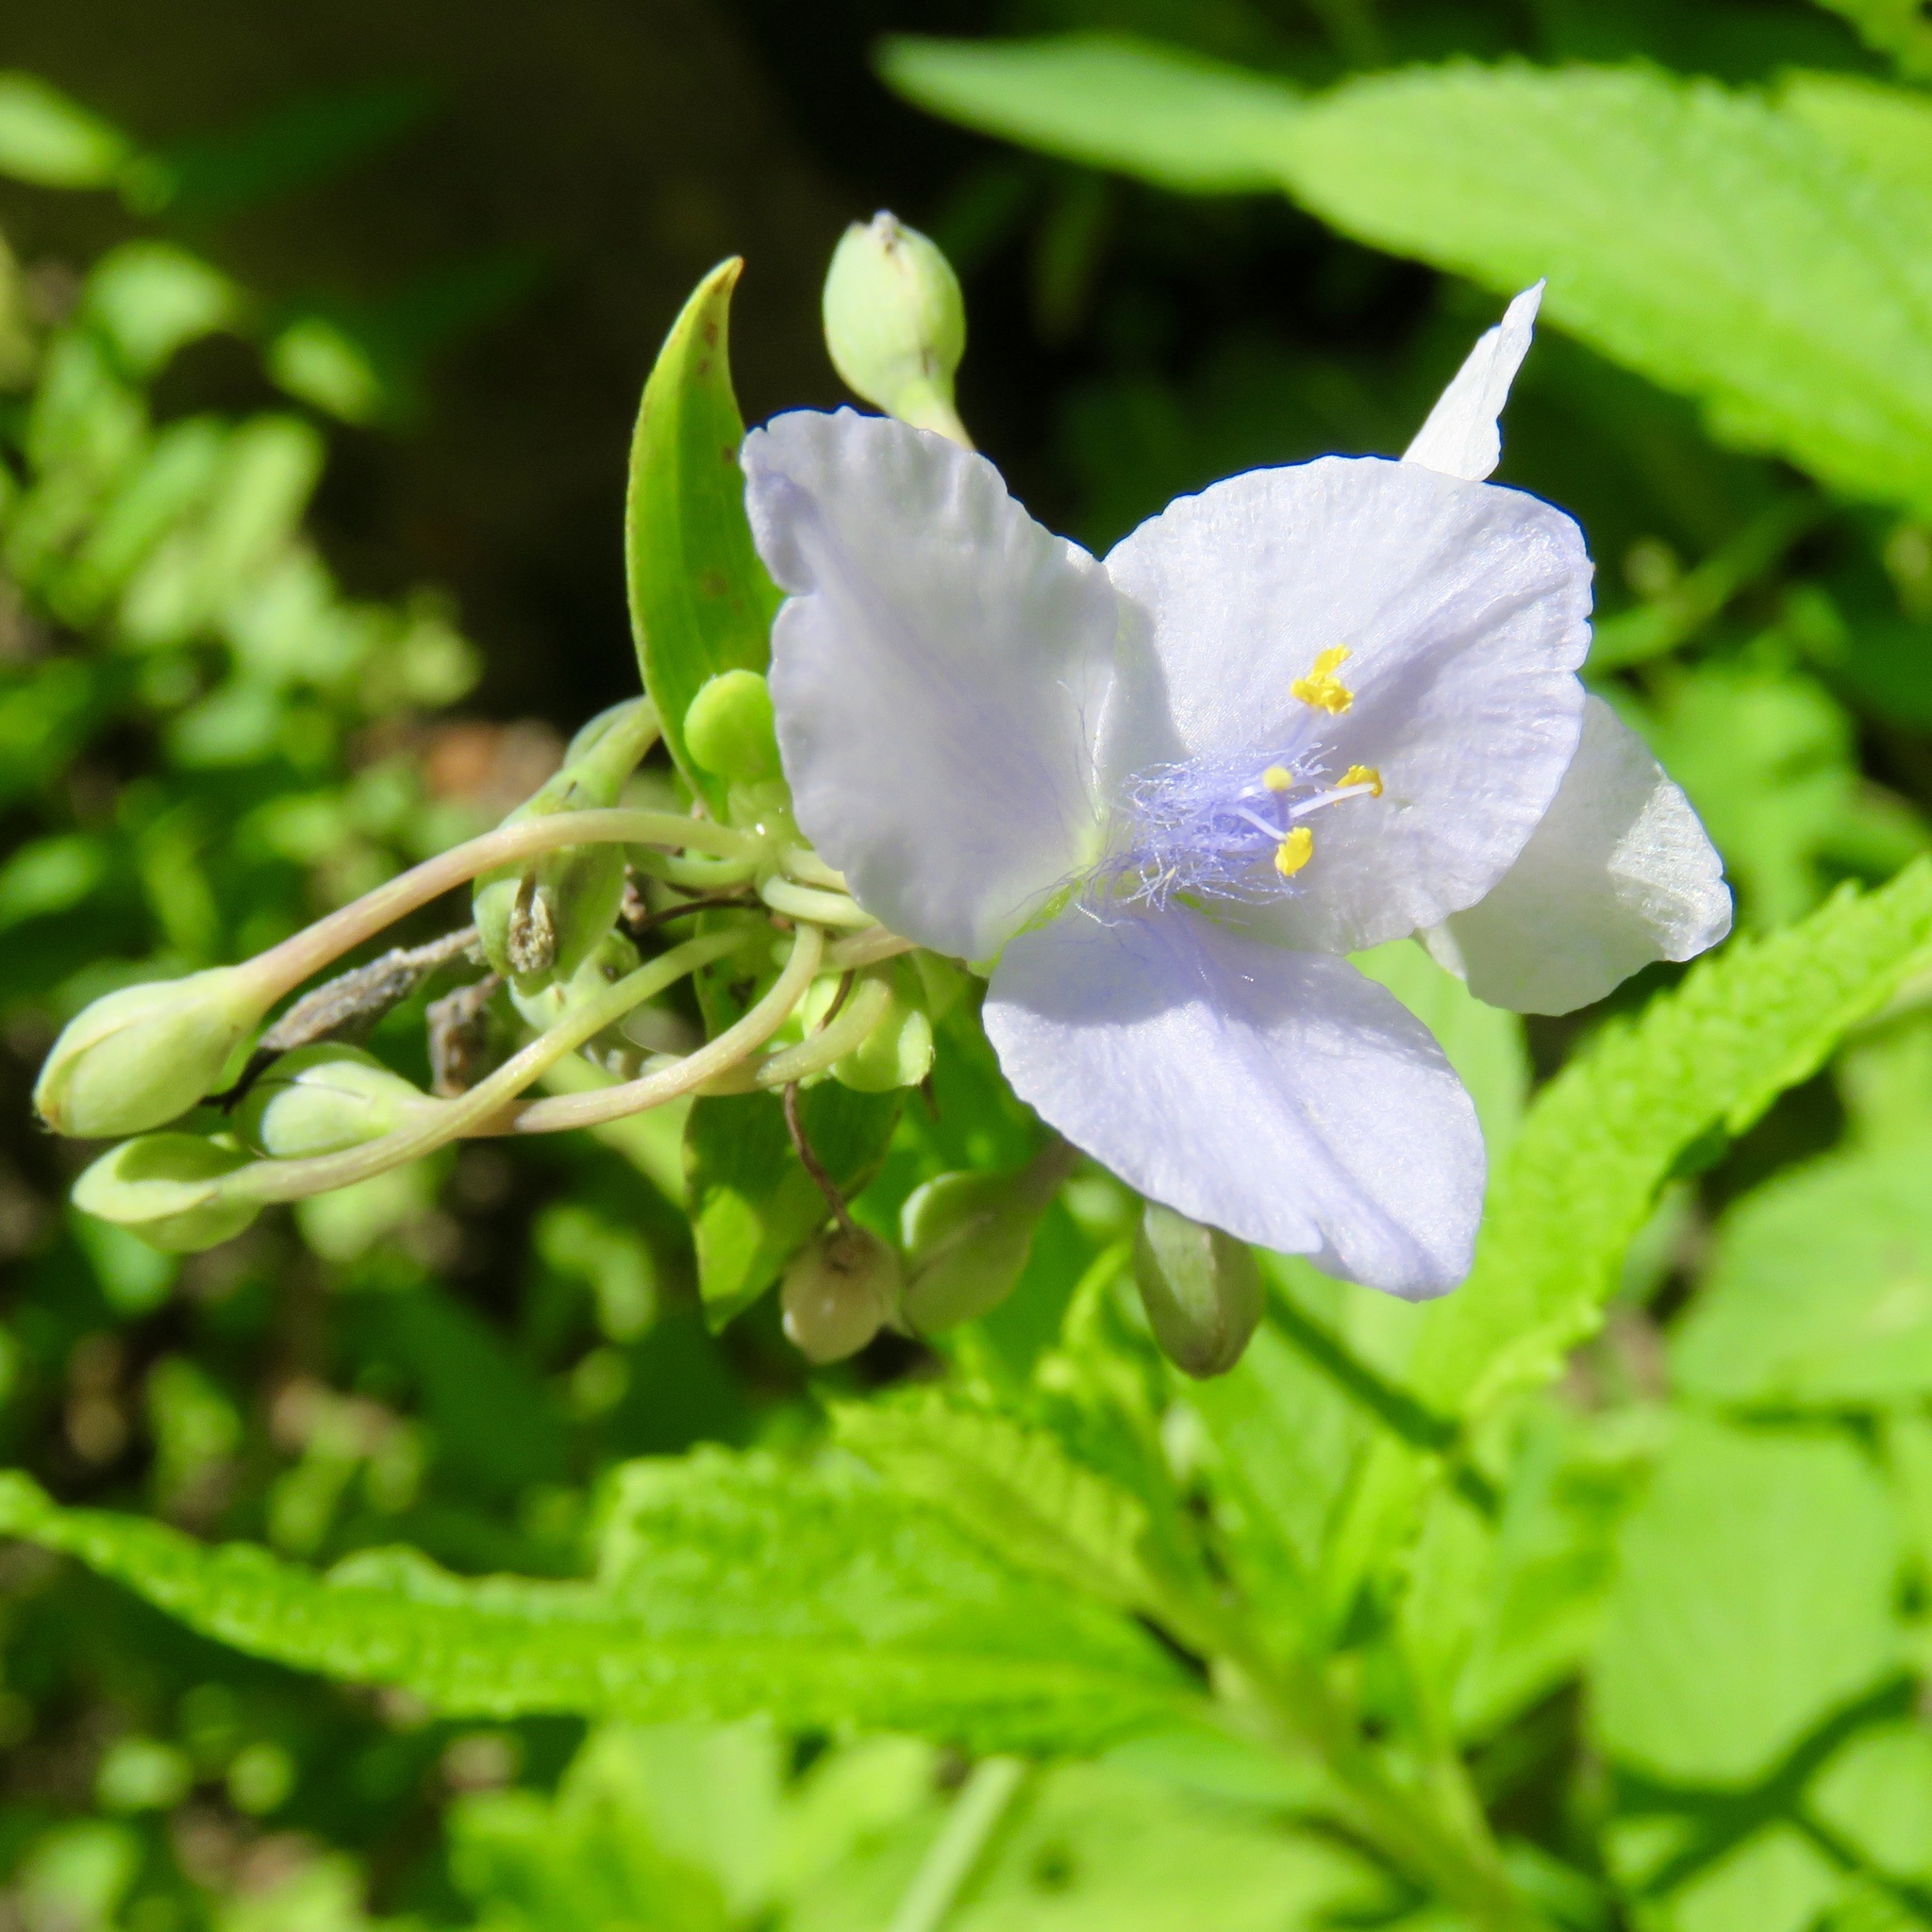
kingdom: Plantae
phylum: Tracheophyta
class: Liliopsida
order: Commelinales
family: Commelinaceae
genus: Tradescantia
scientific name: Tradescantia ohiensis
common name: Ohio spiderwort
